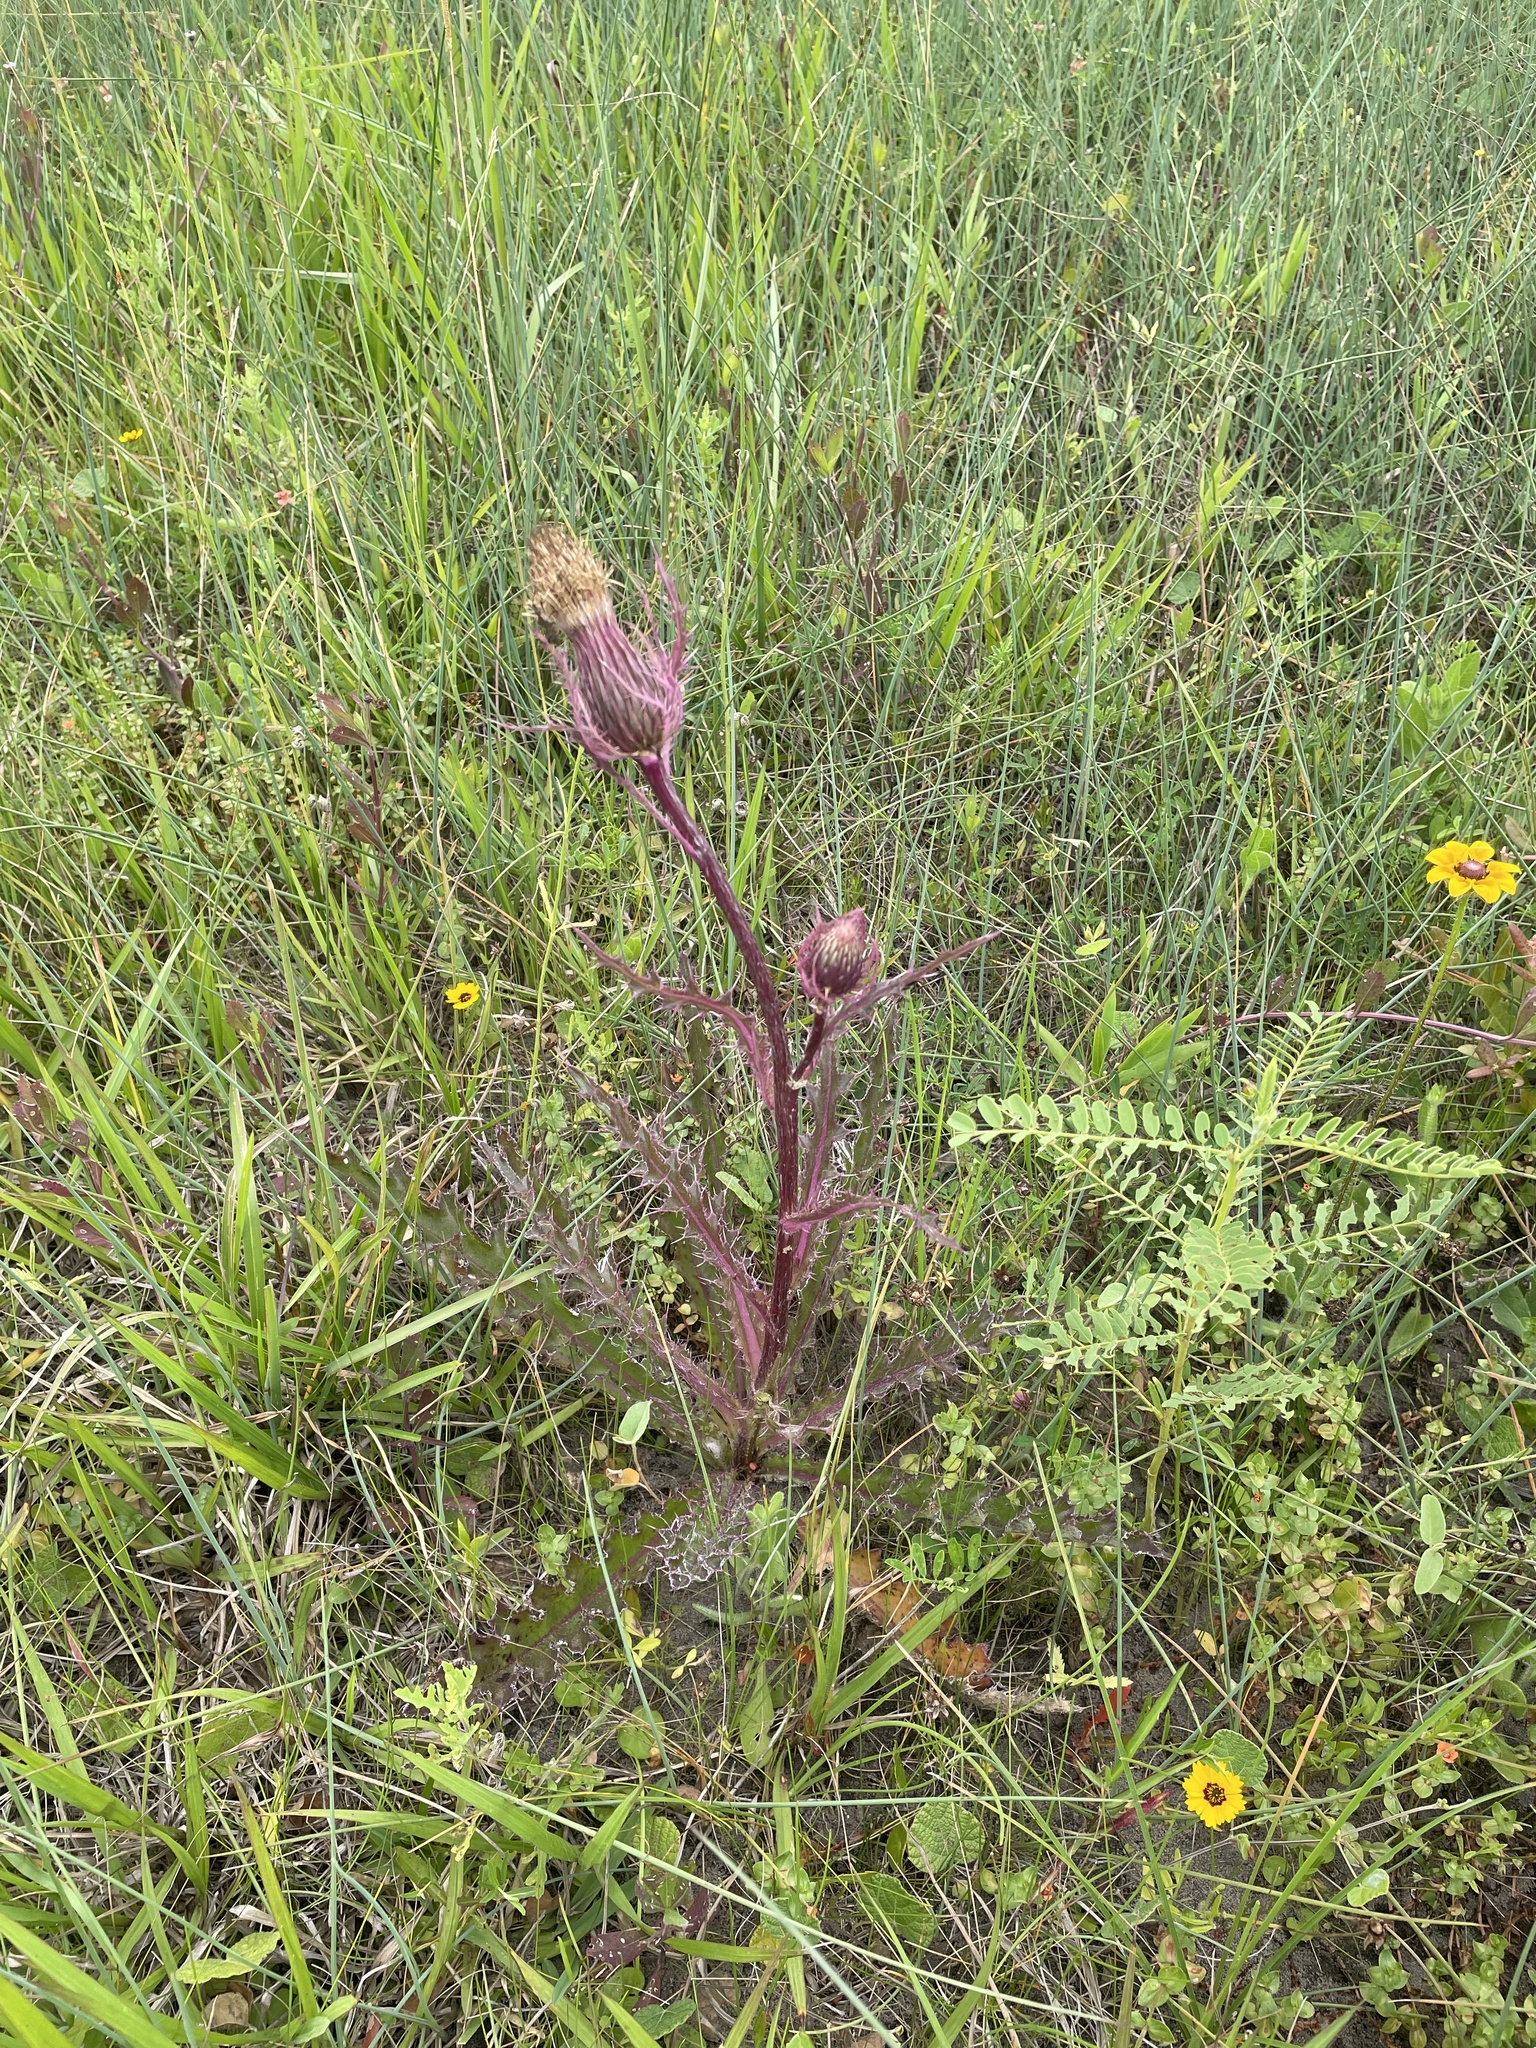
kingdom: Plantae
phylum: Tracheophyta
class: Magnoliopsida
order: Asterales
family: Asteraceae
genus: Cirsium
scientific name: Cirsium horridulum
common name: Bristly thistle
